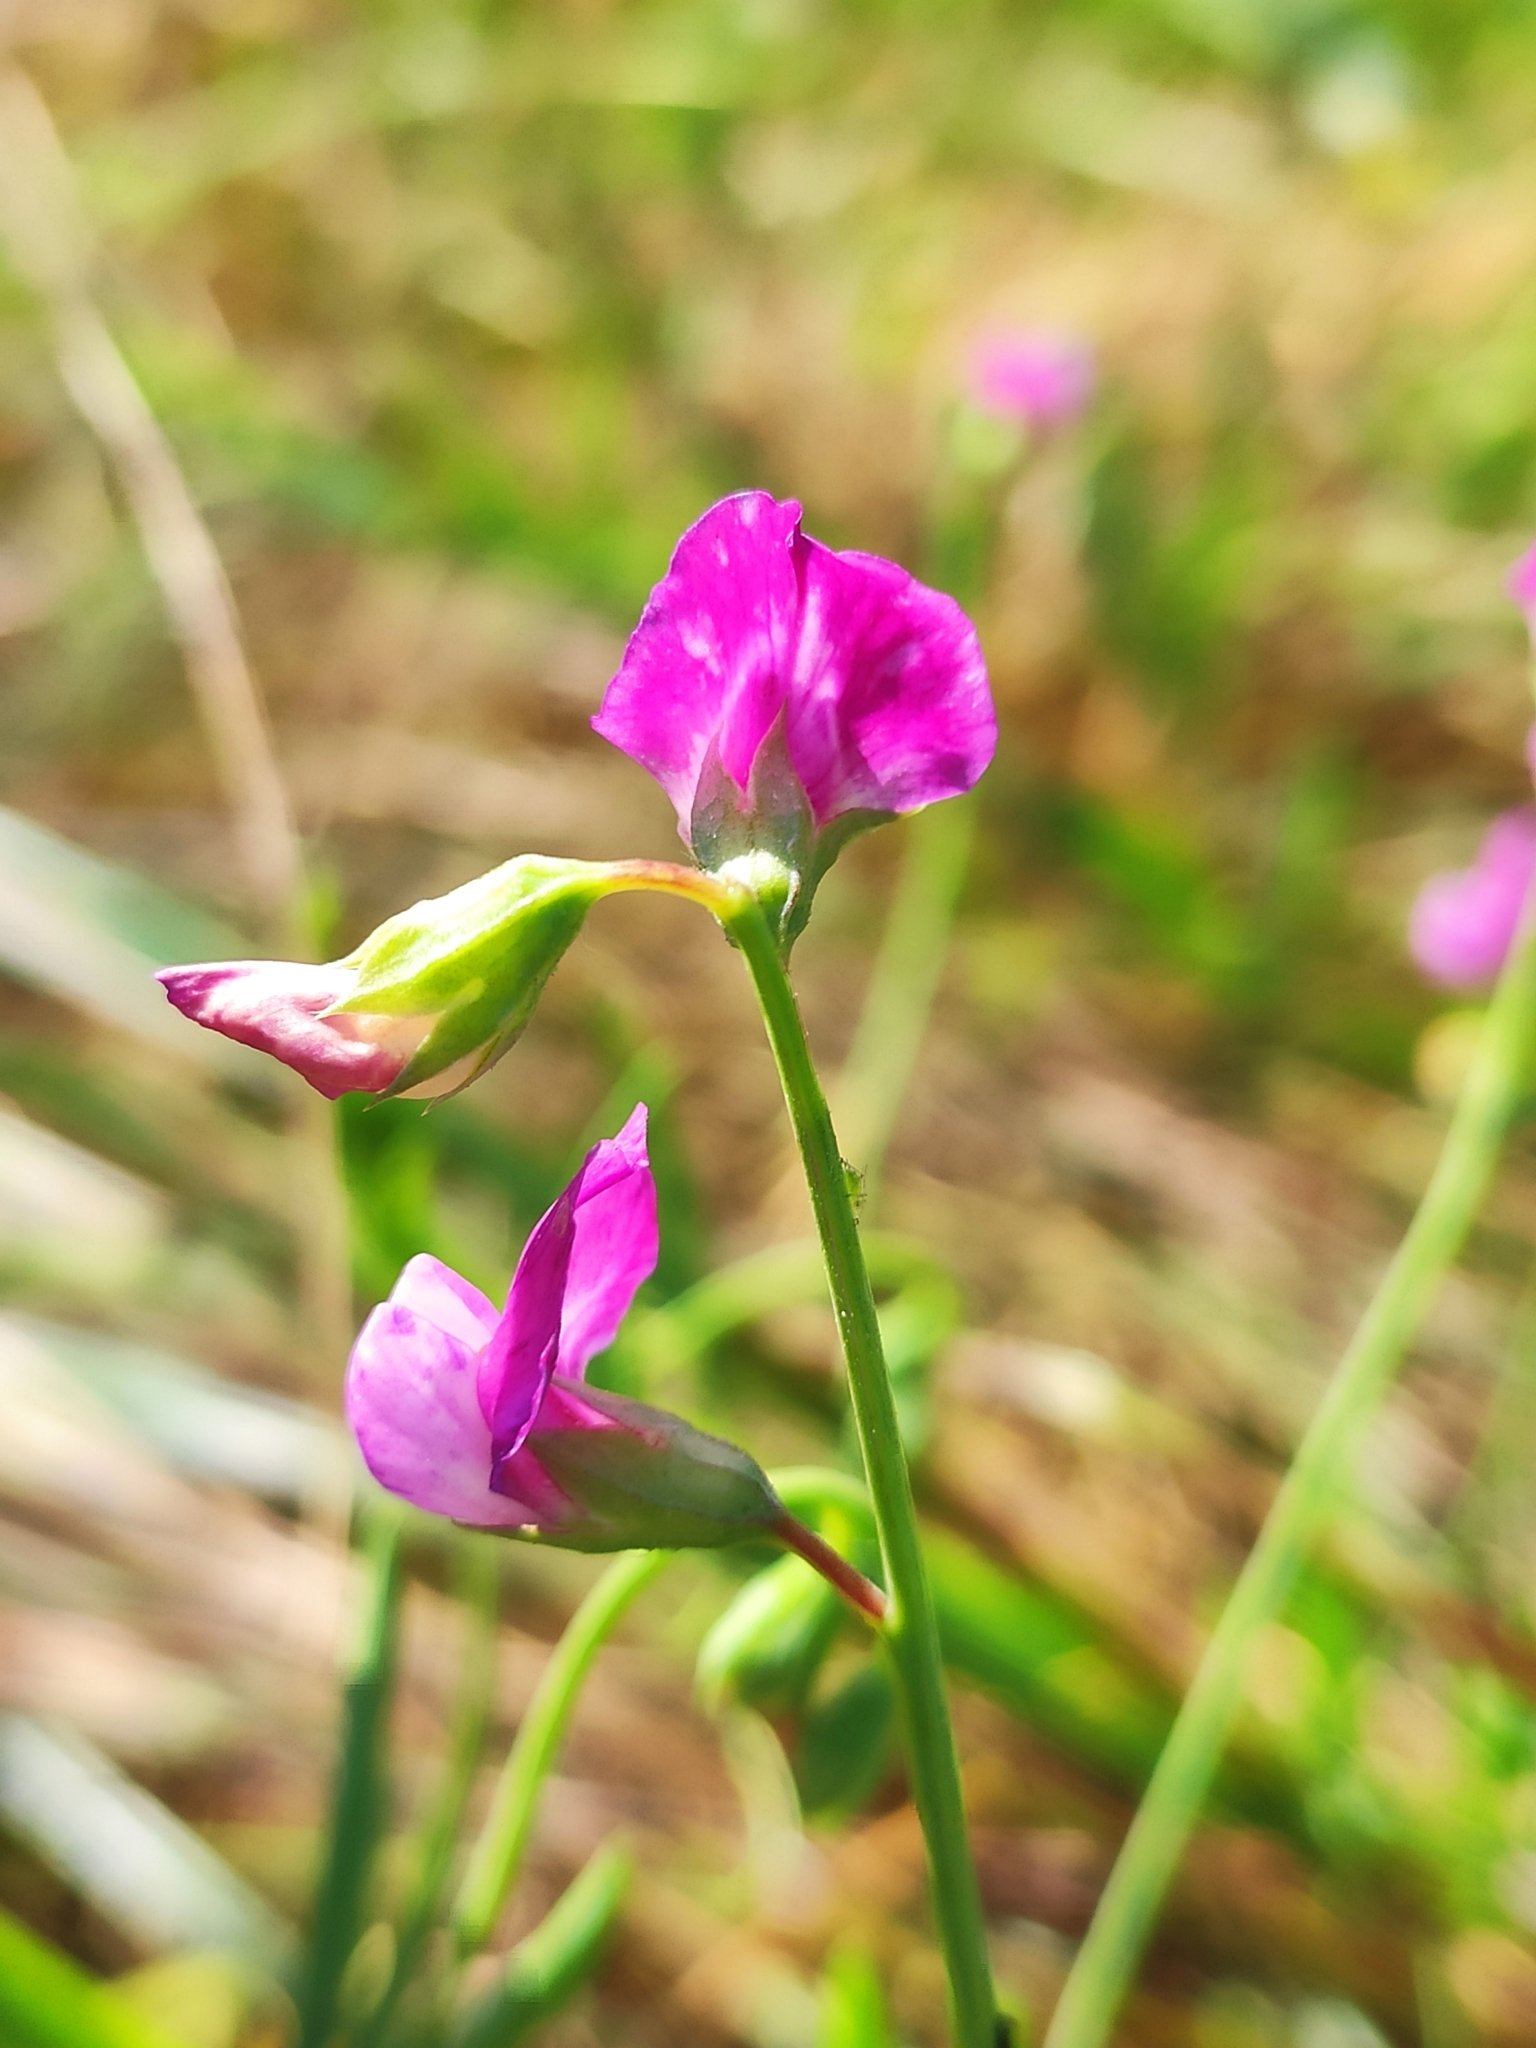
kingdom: Plantae
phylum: Tracheophyta
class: Magnoliopsida
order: Fabales
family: Fabaceae
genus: Lathyrus
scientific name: Lathyrus hirsutus
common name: Hairy vetchling
